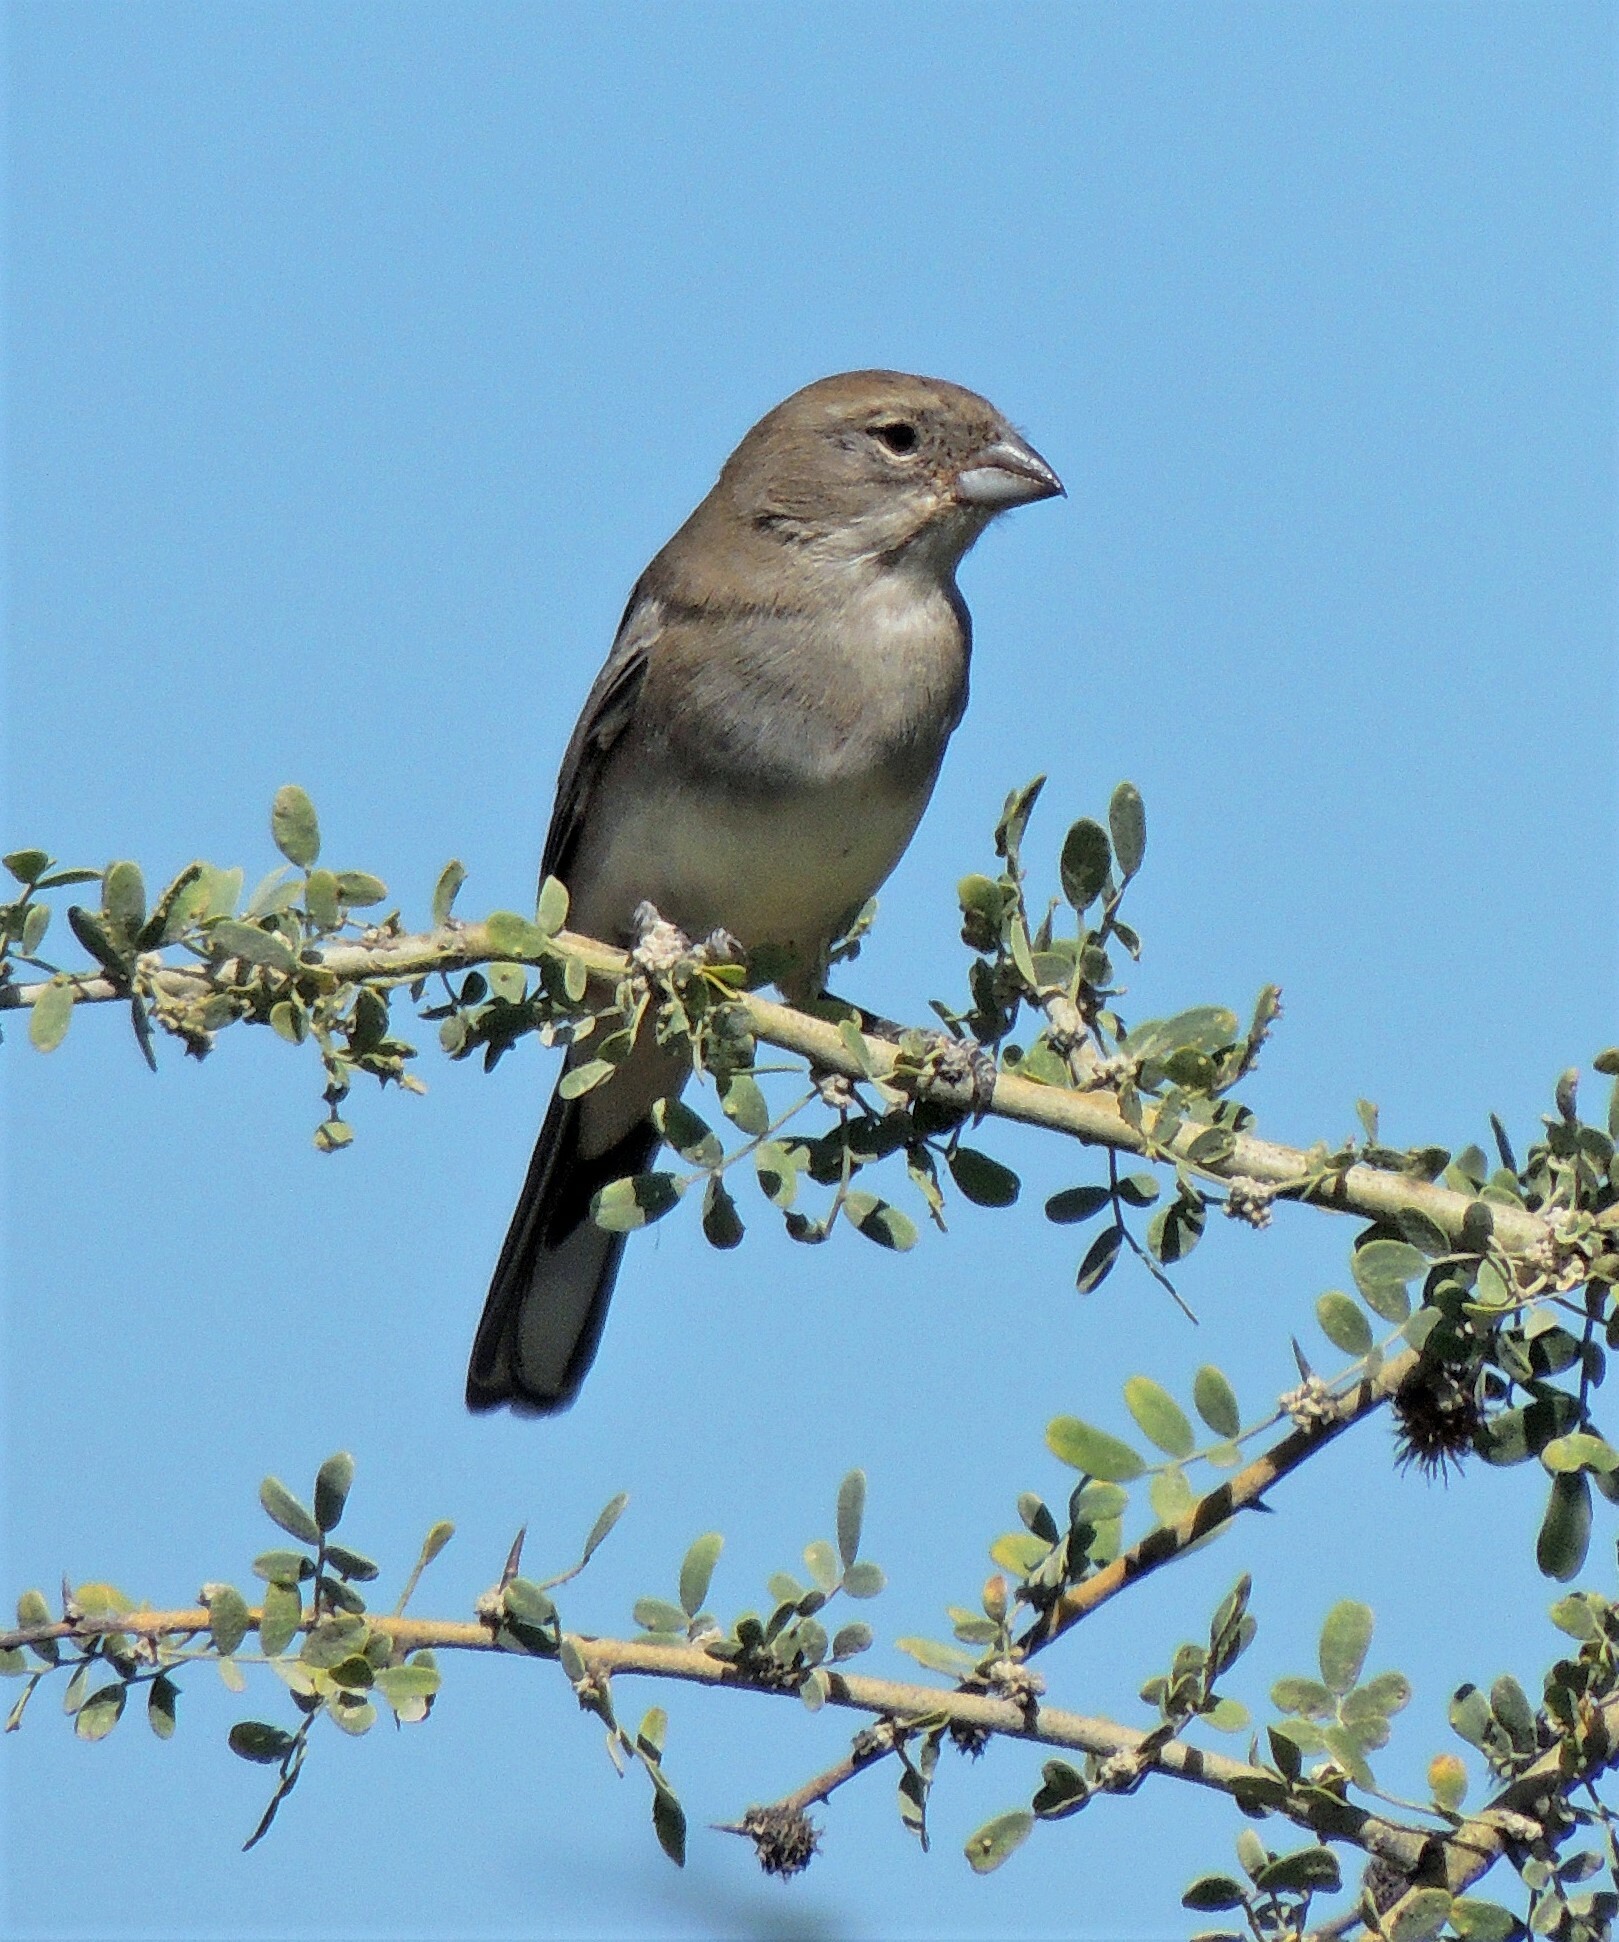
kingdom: Animalia
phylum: Chordata
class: Aves
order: Passeriformes
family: Thraupidae
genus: Diuca
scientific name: Diuca diuca
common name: Common diuca finch
